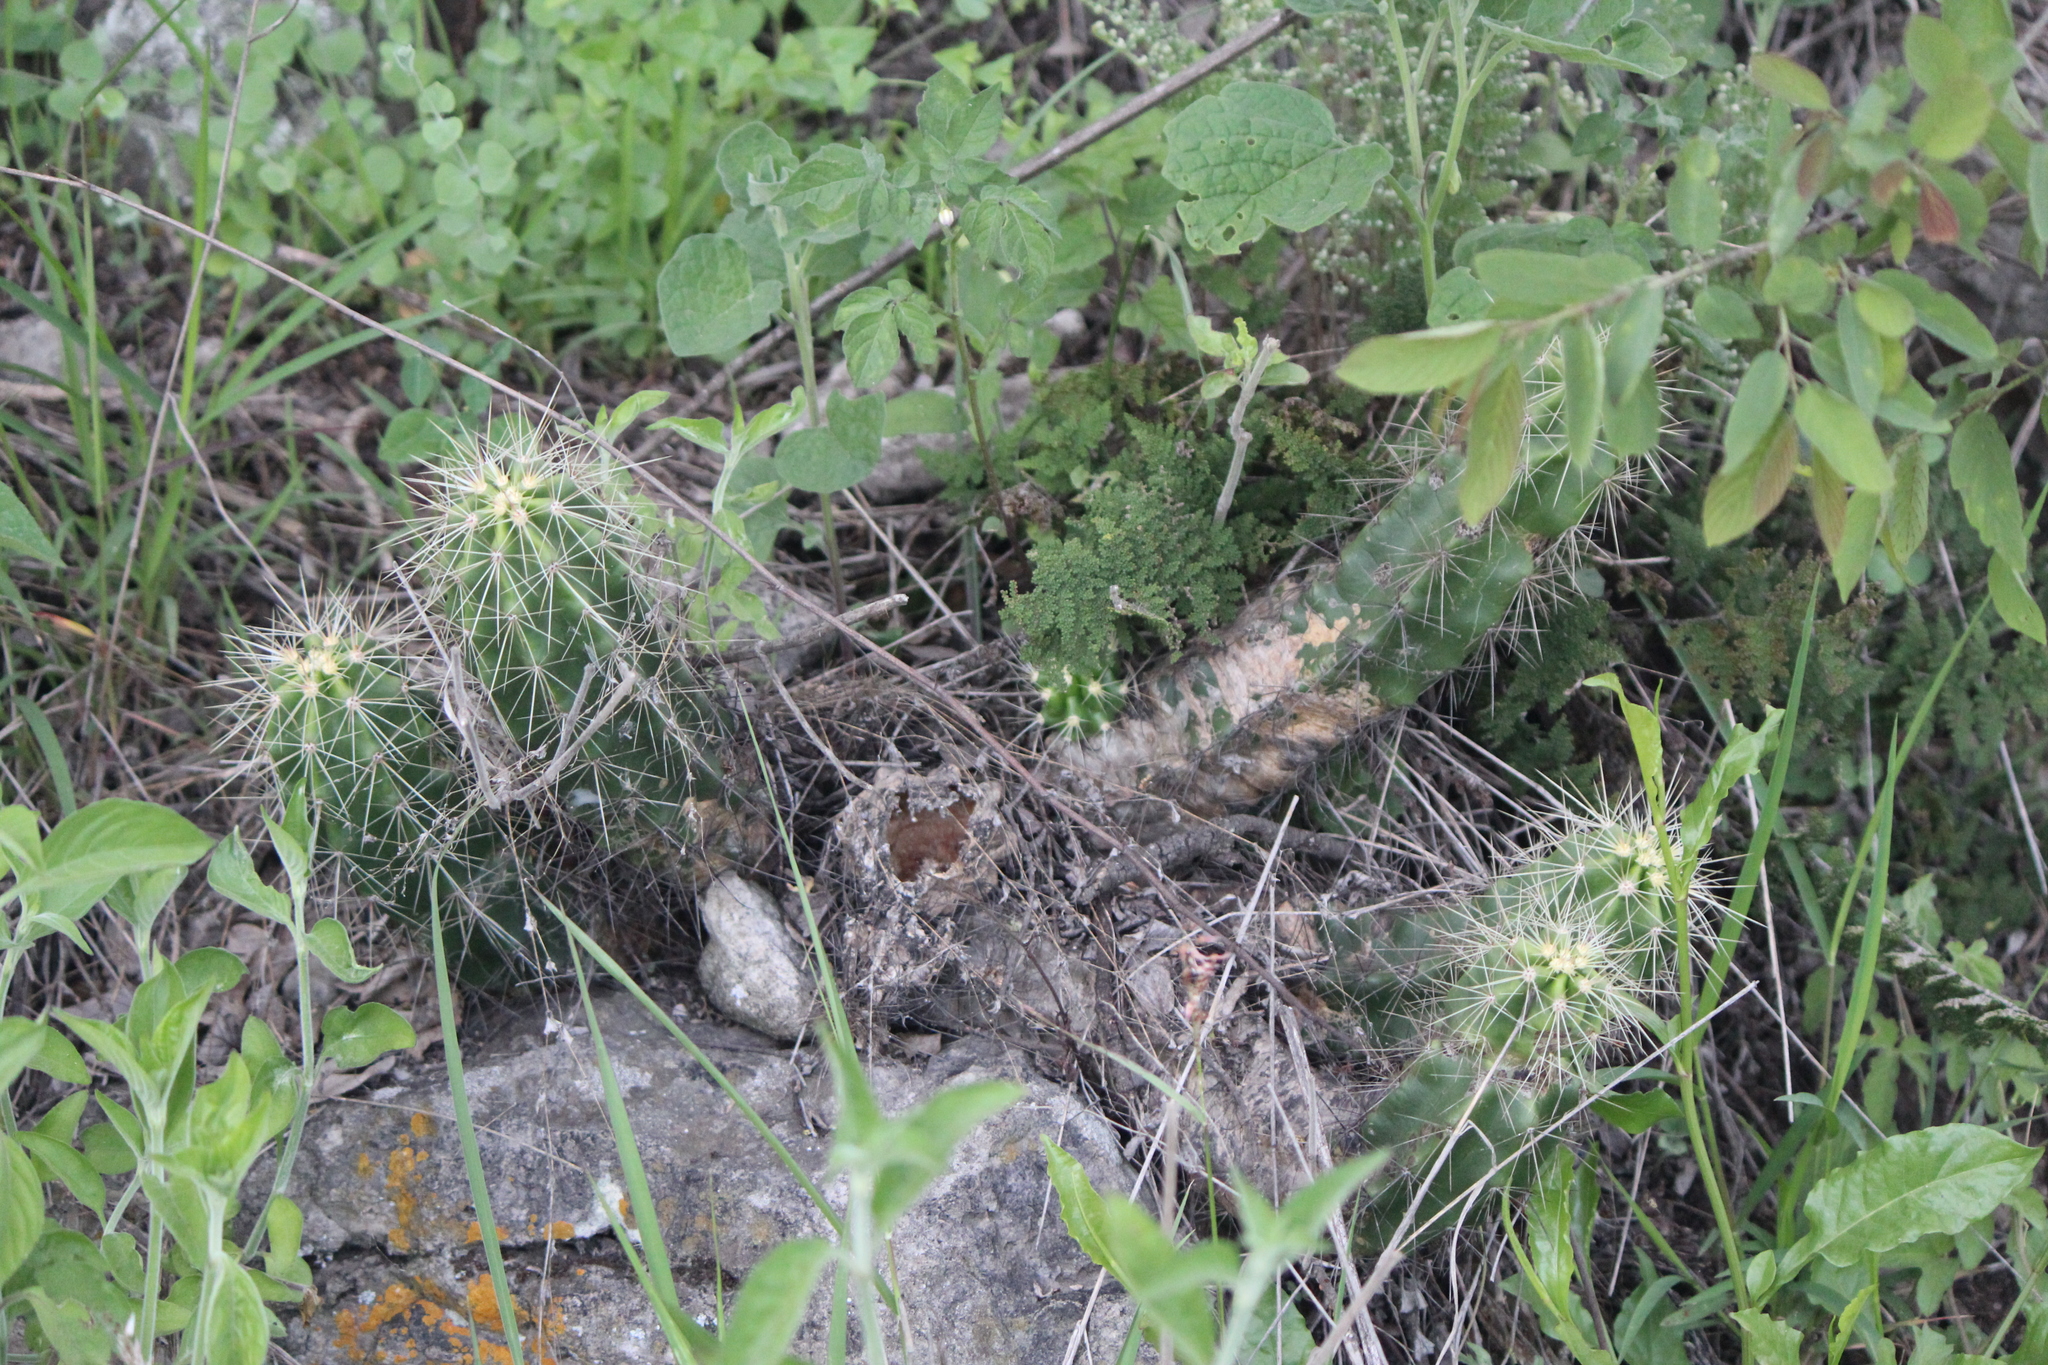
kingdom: Plantae
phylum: Tracheophyta
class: Magnoliopsida
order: Caryophyllales
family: Cactaceae
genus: Echinocereus
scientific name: Echinocereus cinerascens
